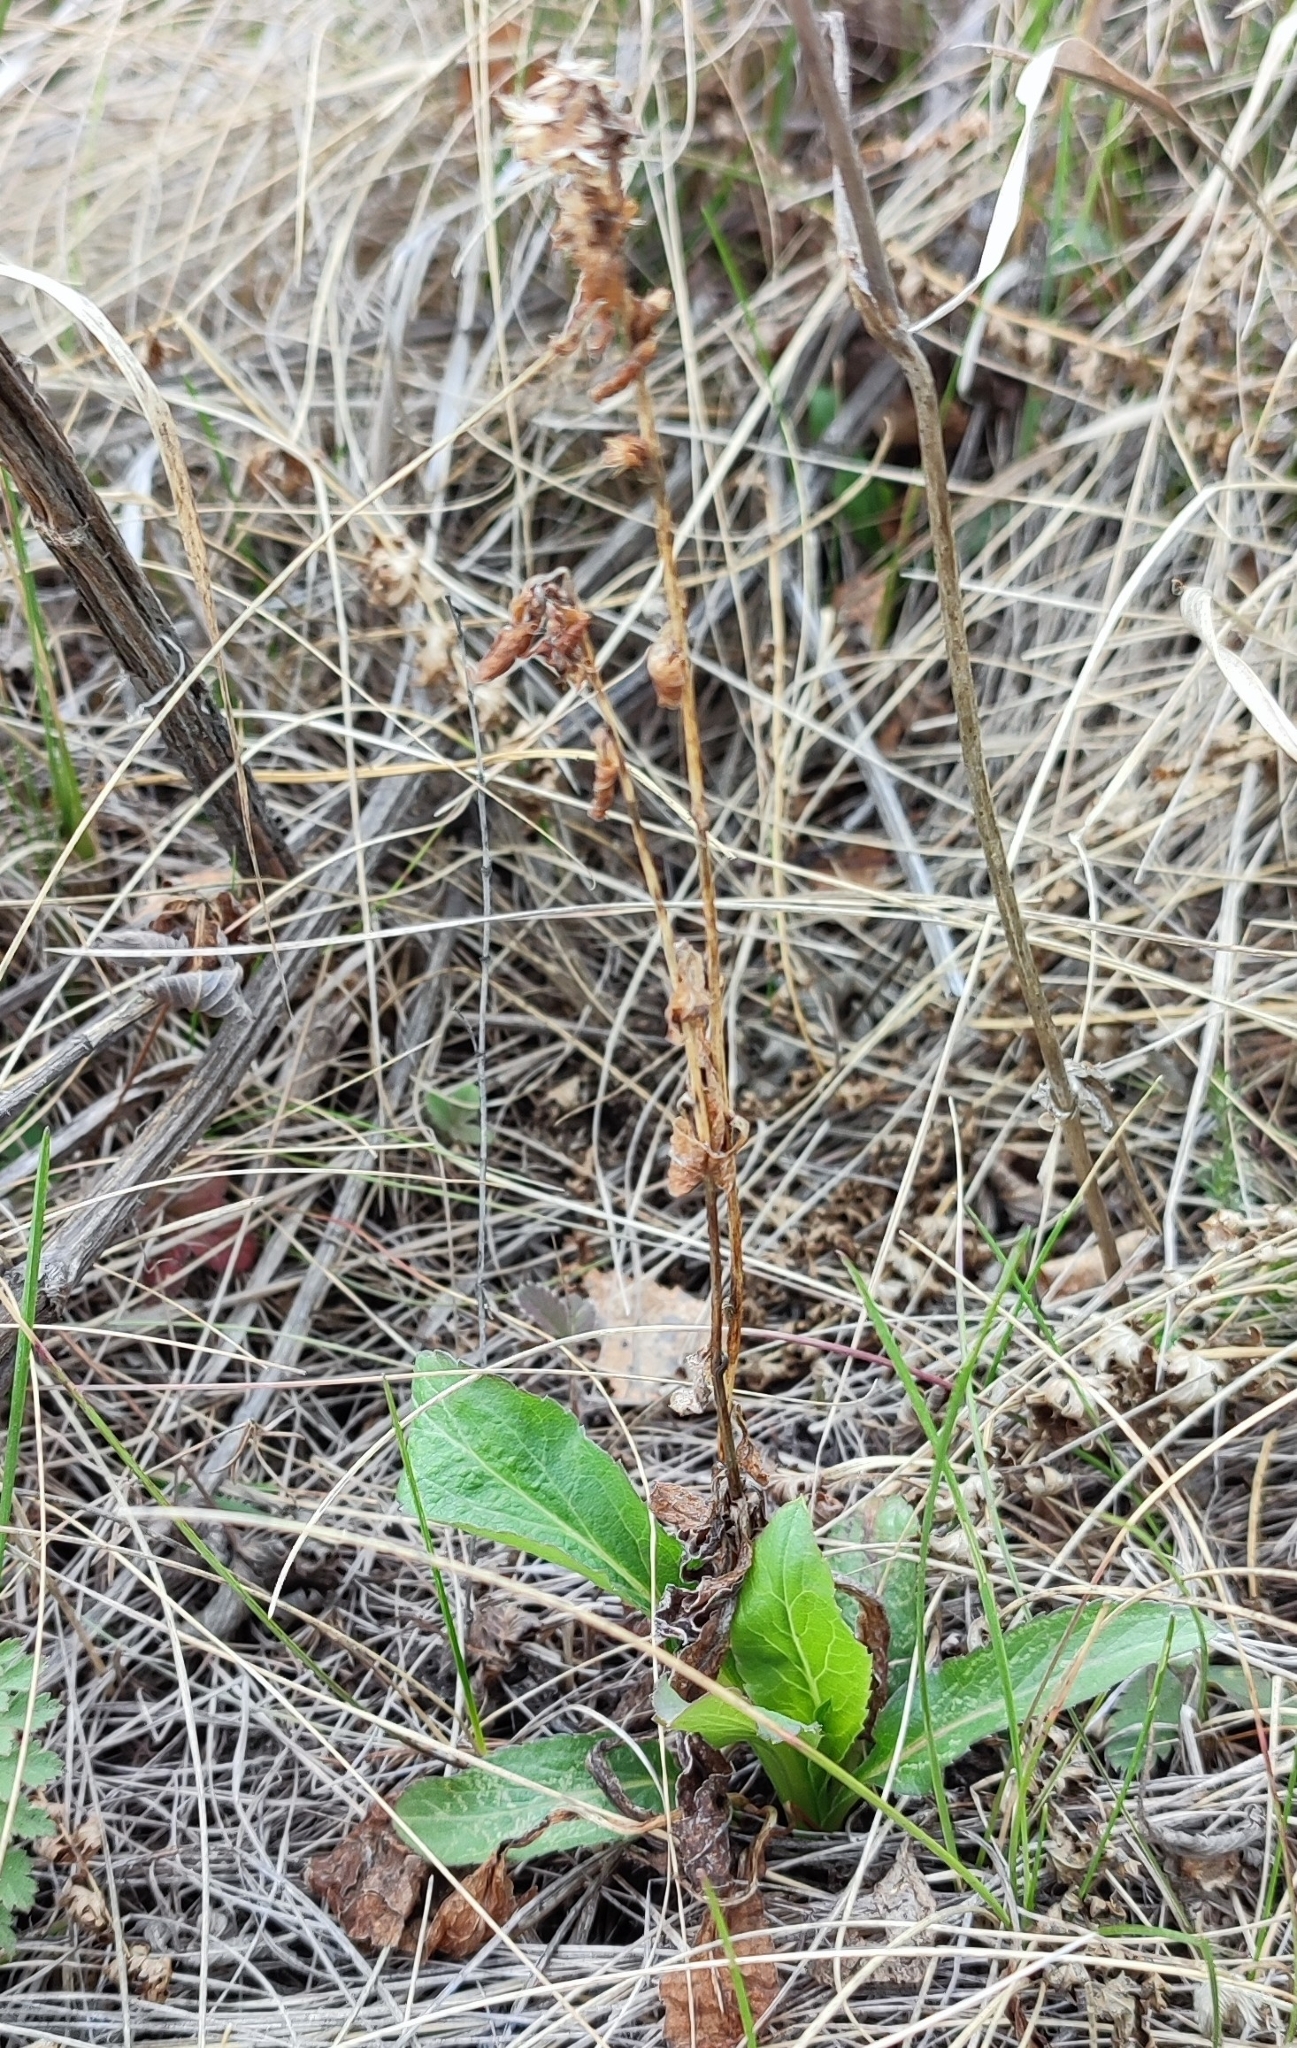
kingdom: Plantae
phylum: Tracheophyta
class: Magnoliopsida
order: Asterales
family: Asteraceae
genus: Solidago
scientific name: Solidago virgaurea
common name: Goldenrod
